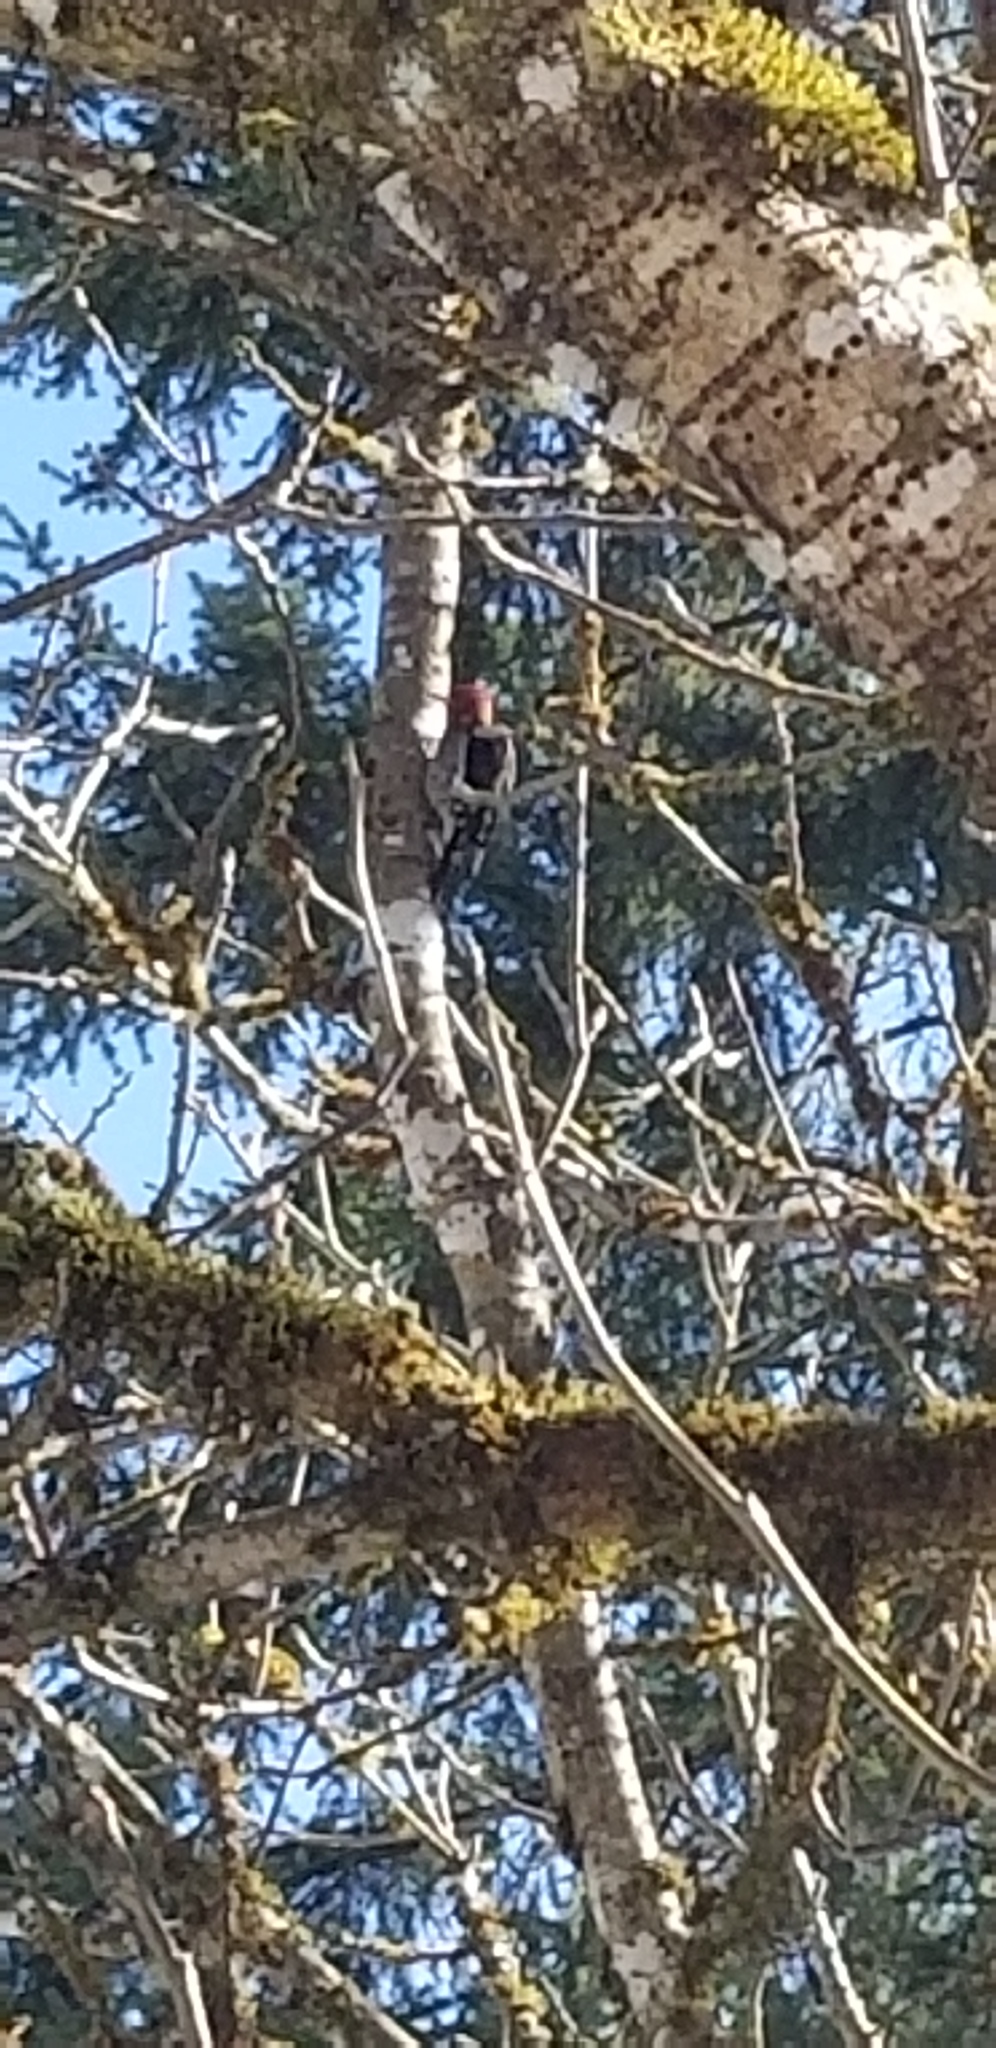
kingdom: Animalia
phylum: Chordata
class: Aves
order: Piciformes
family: Picidae
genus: Sphyrapicus
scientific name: Sphyrapicus ruber
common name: Red-breasted sapsucker
